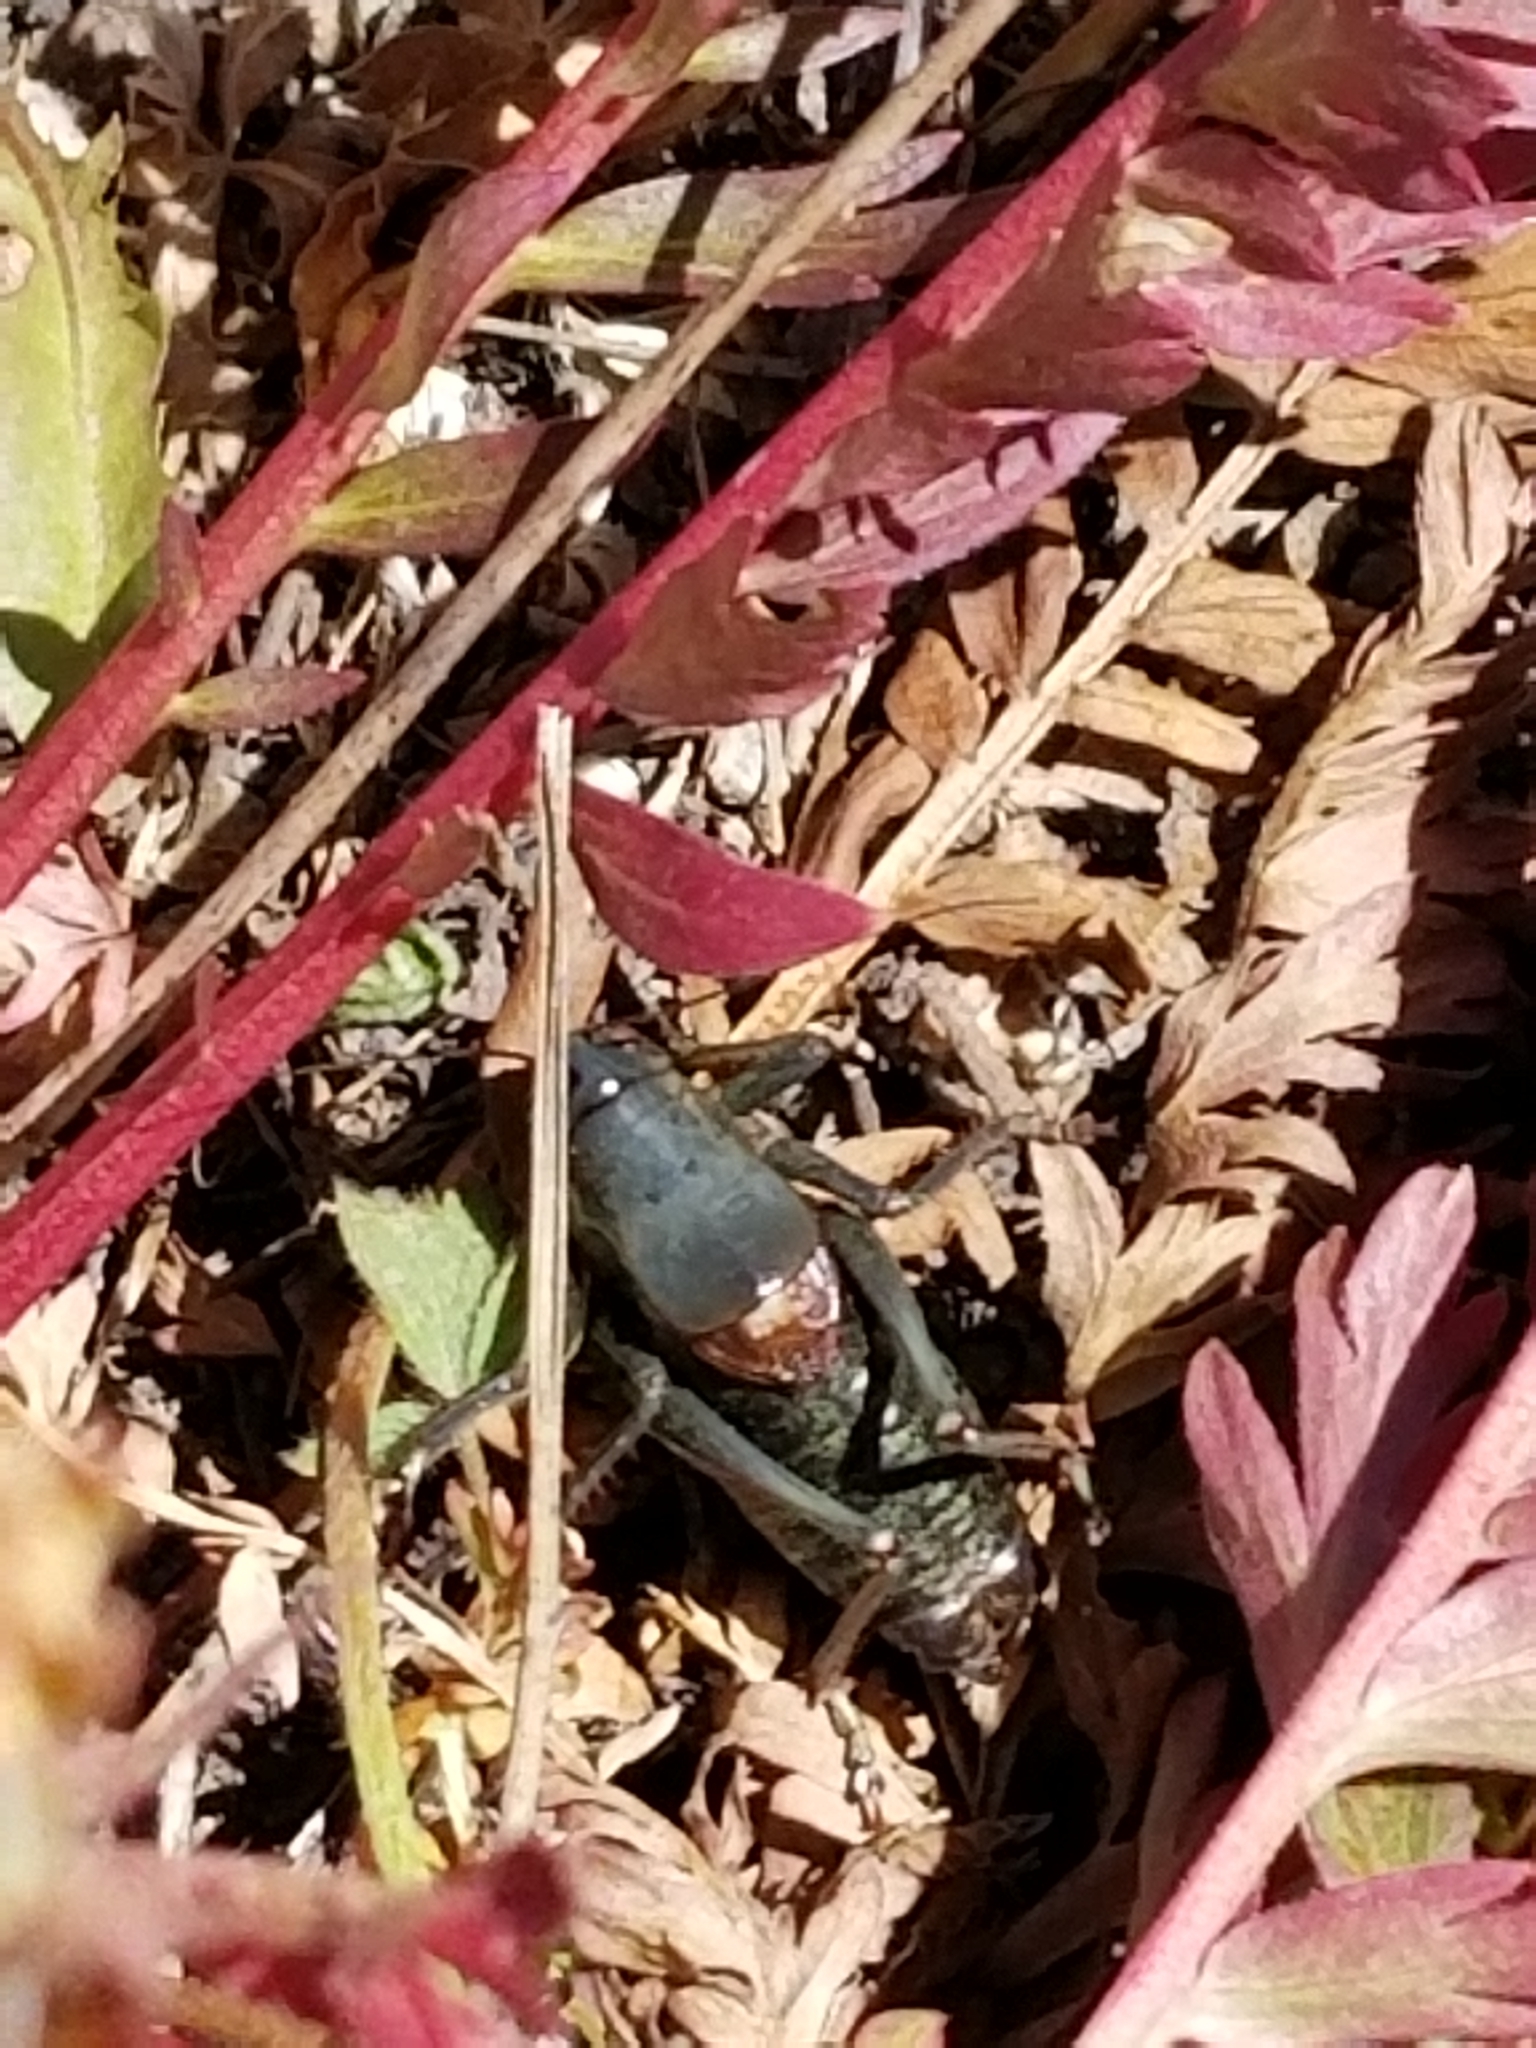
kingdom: Animalia
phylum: Arthropoda
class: Insecta
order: Orthoptera
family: Tettigoniidae
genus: Anabrus
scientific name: Anabrus simplex
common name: Mormon cricket
